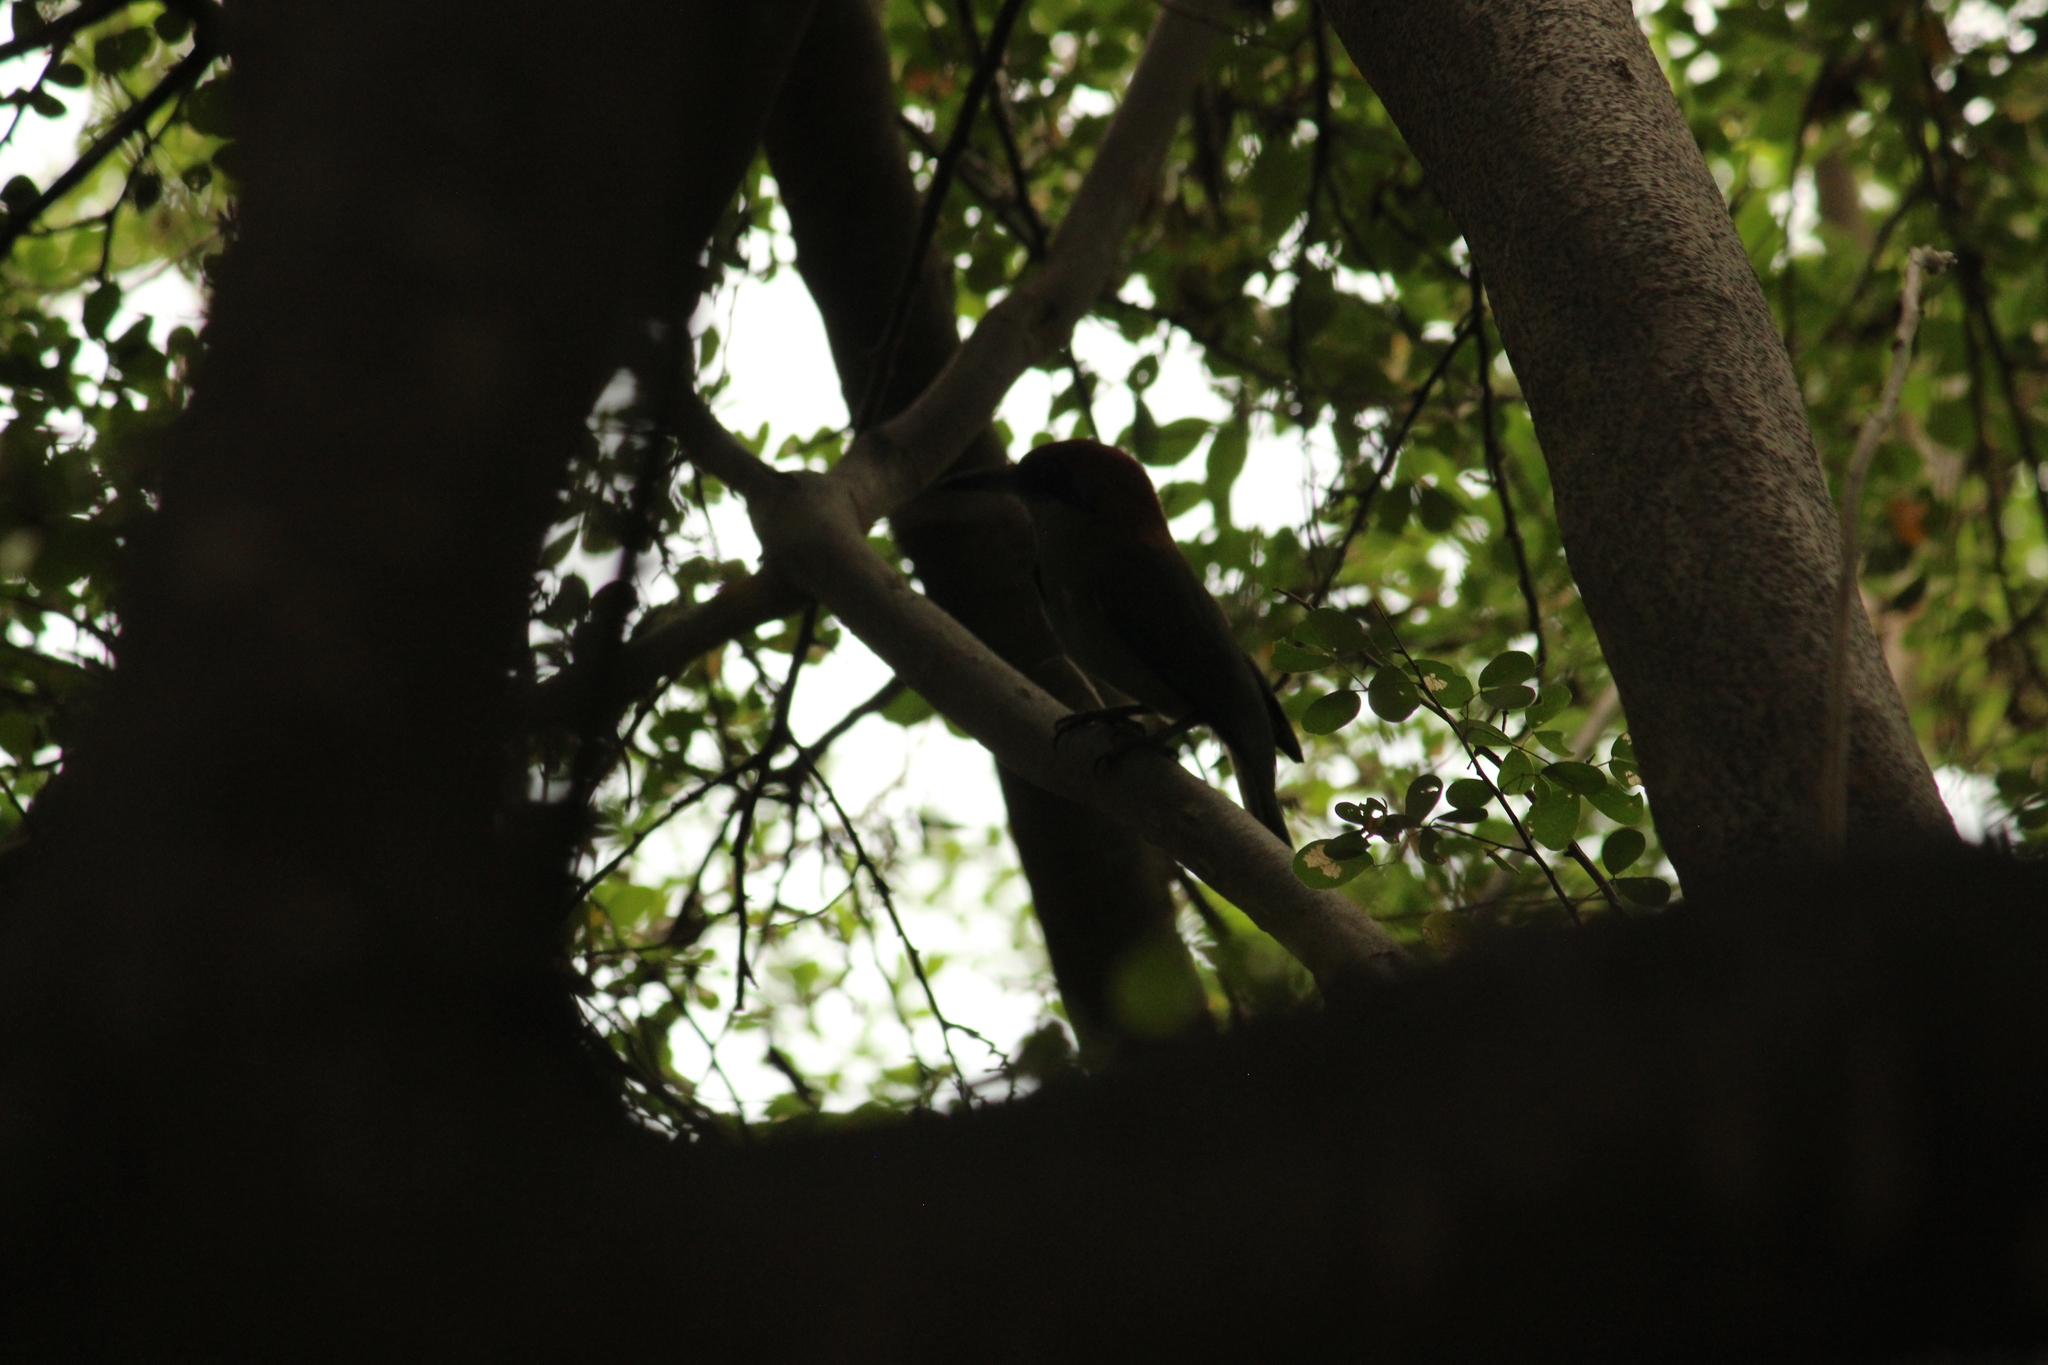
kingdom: Animalia
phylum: Chordata
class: Aves
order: Coraciiformes
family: Momotidae
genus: Momotus
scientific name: Momotus mexicanus
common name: Russet-crowned motmot
